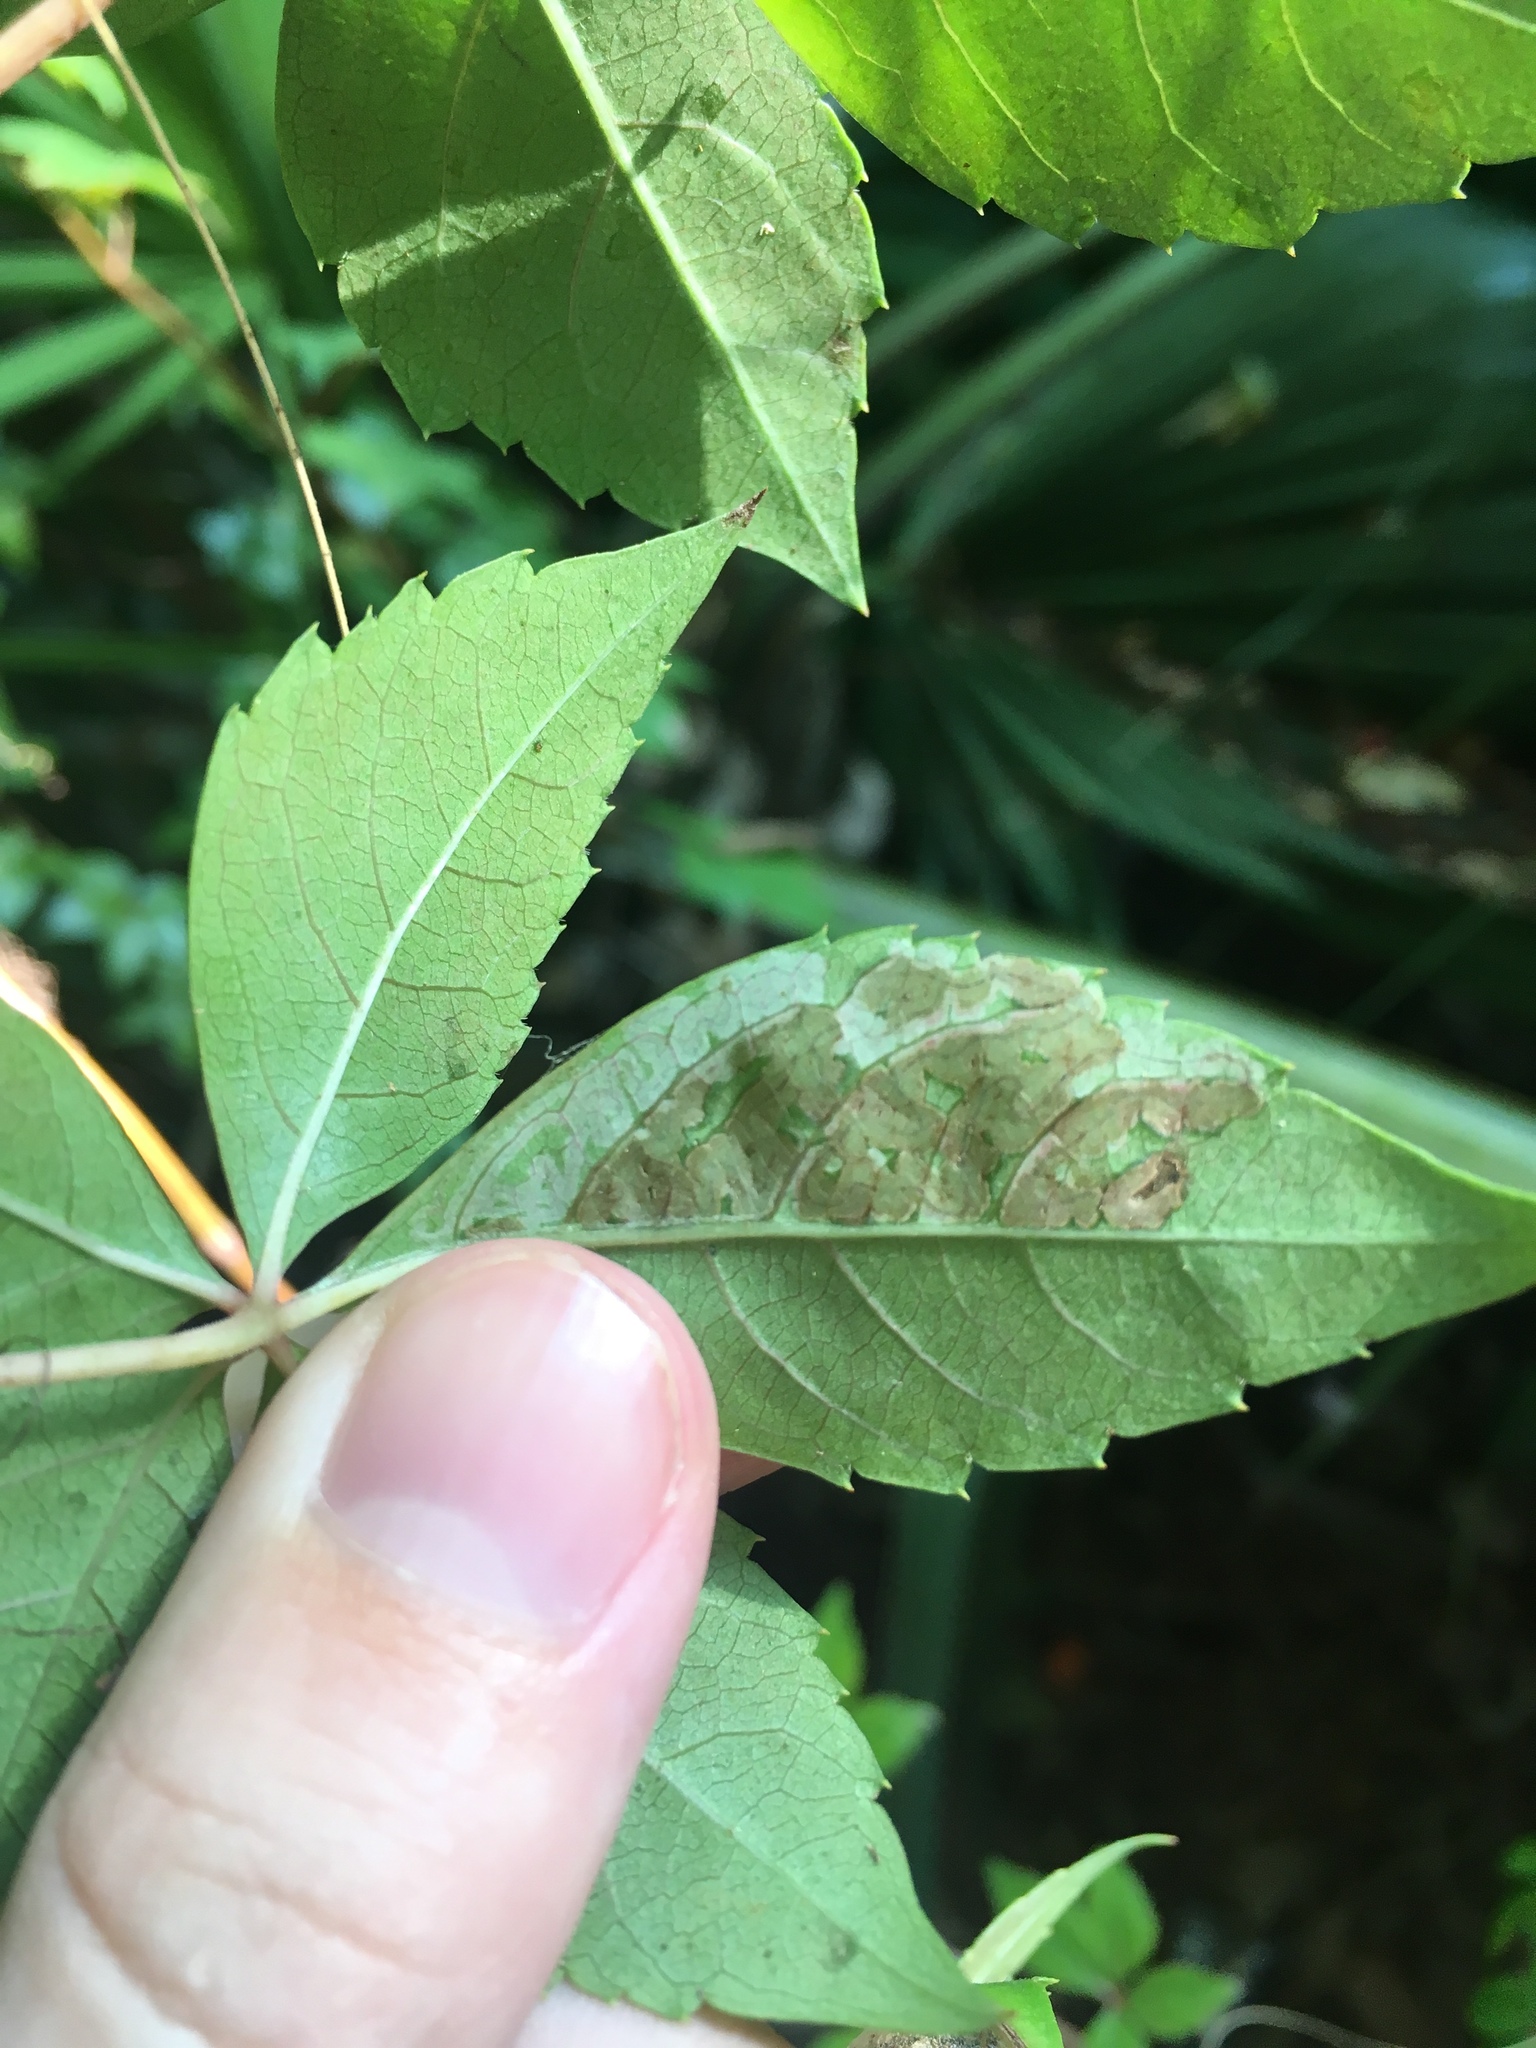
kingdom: Animalia
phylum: Arthropoda
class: Insecta
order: Lepidoptera
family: Gracillariidae
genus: Phyllocnistis
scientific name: Phyllocnistis ampelopsiella
